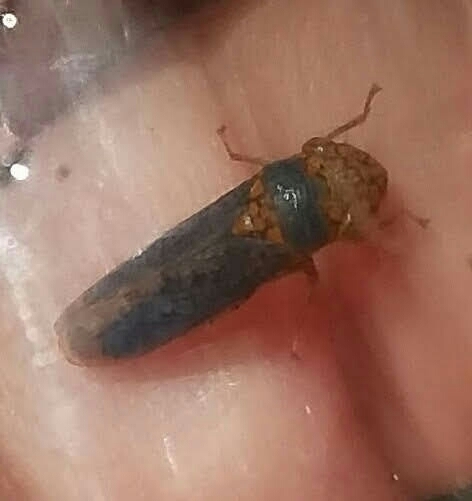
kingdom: Animalia
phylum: Arthropoda
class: Insecta
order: Hemiptera
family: Cicadellidae
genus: Oncometopia
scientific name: Oncometopia orbona
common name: Broad-headed sharpshooter
